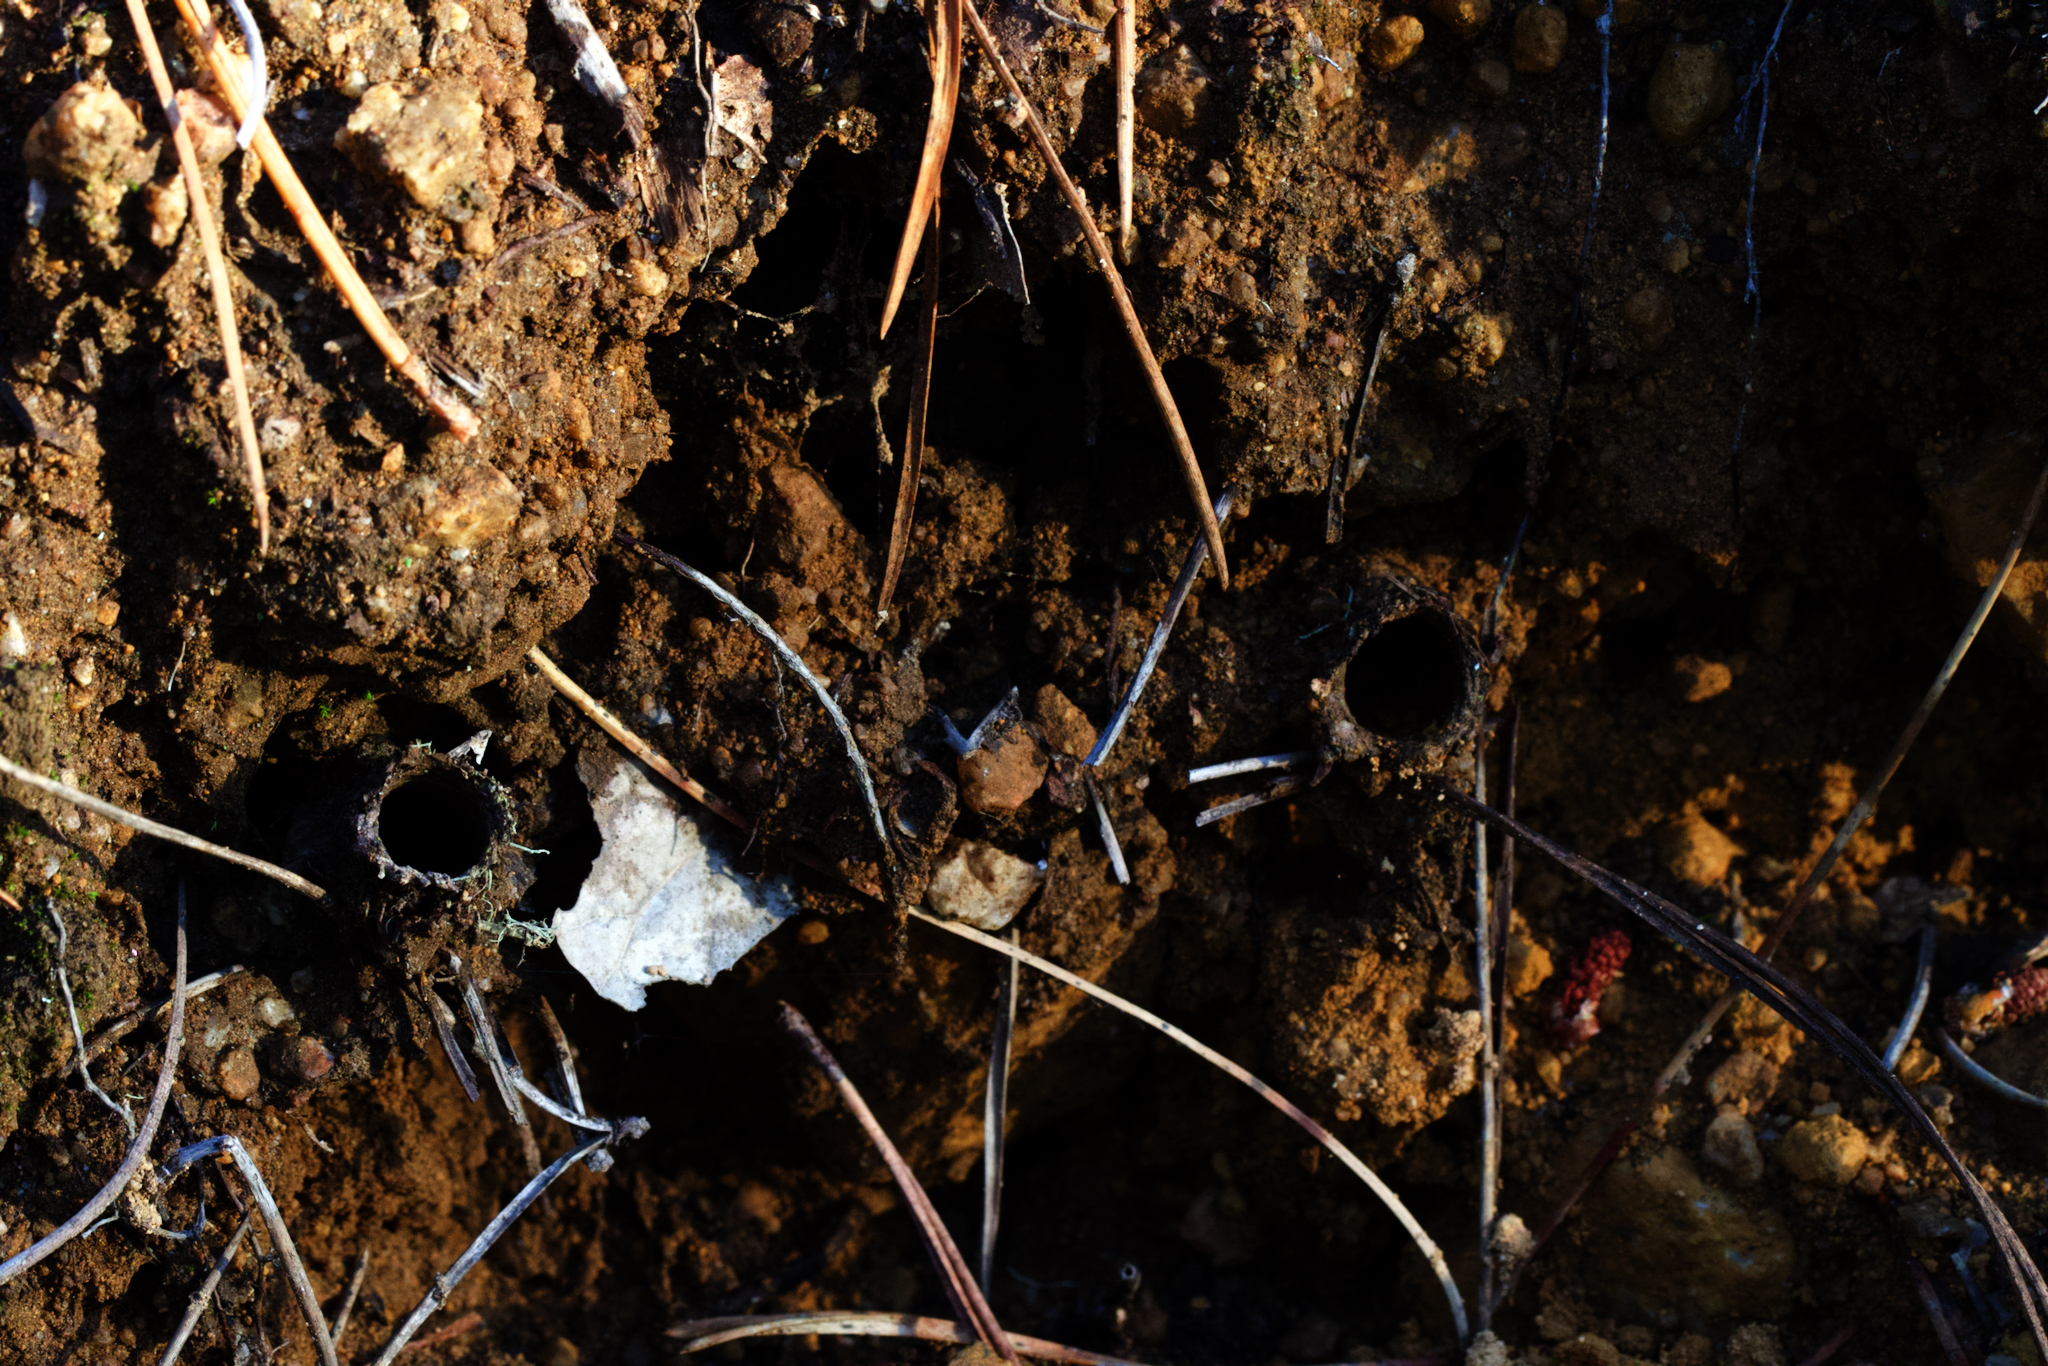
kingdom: Animalia
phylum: Arthropoda
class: Arachnida
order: Araneae
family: Antrodiaetidae
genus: Atypoides
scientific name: Atypoides riversi
